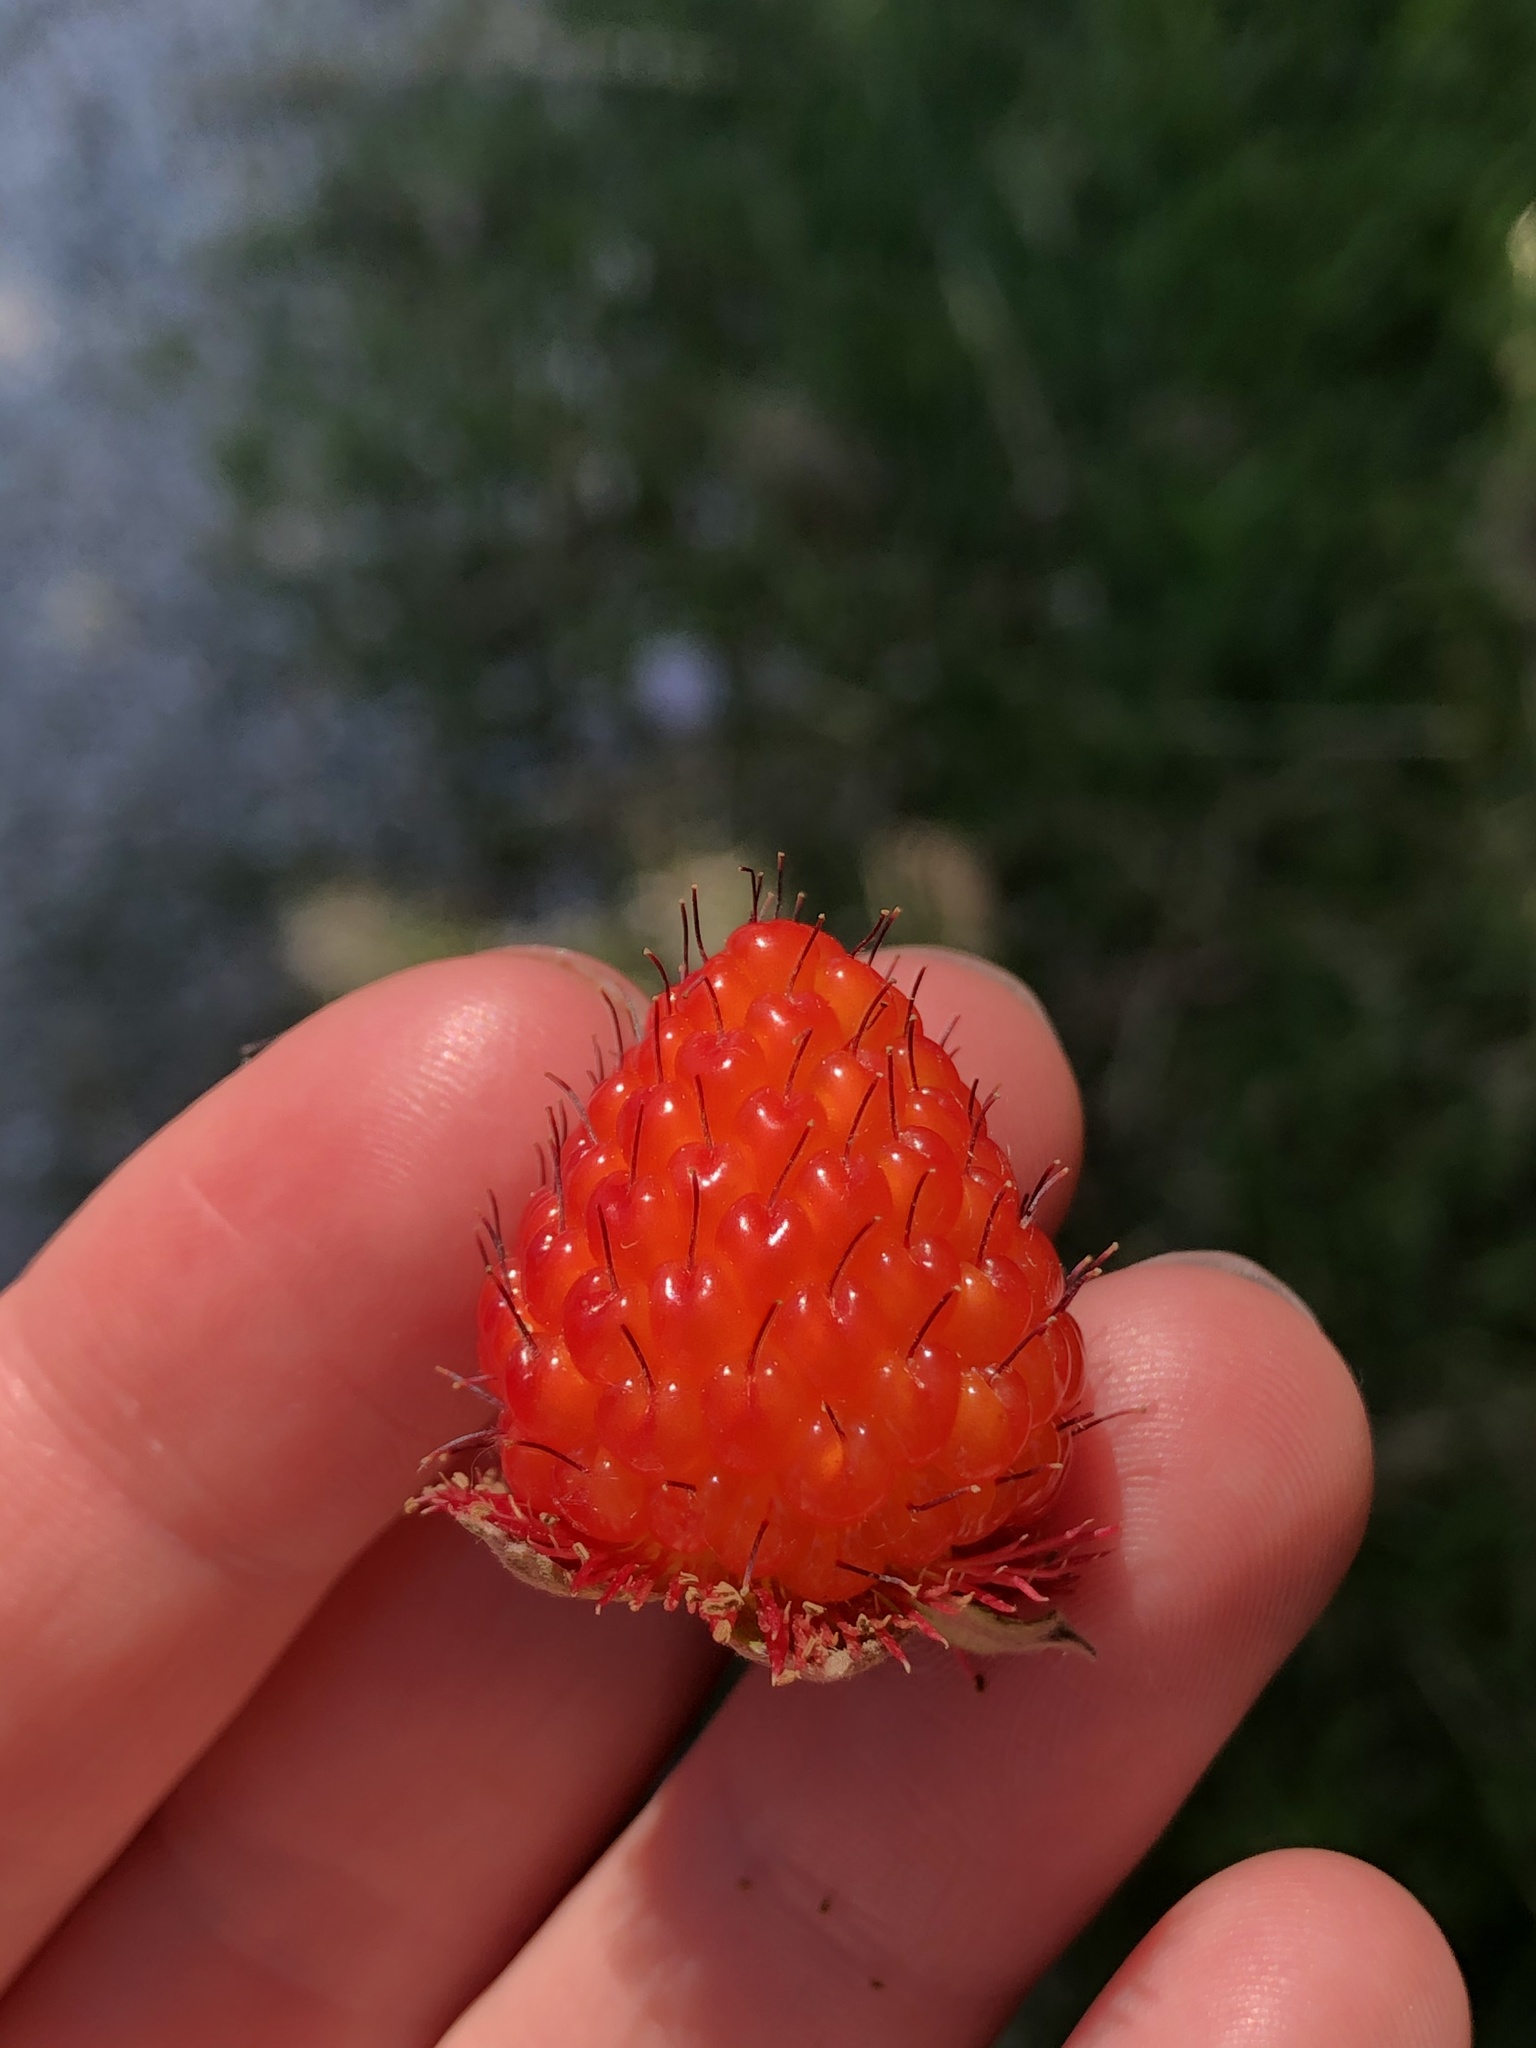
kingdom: Plantae
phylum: Tracheophyta
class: Magnoliopsida
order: Rosales
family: Rosaceae
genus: Rubus
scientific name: Rubus spectabilis
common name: Salmonberry
